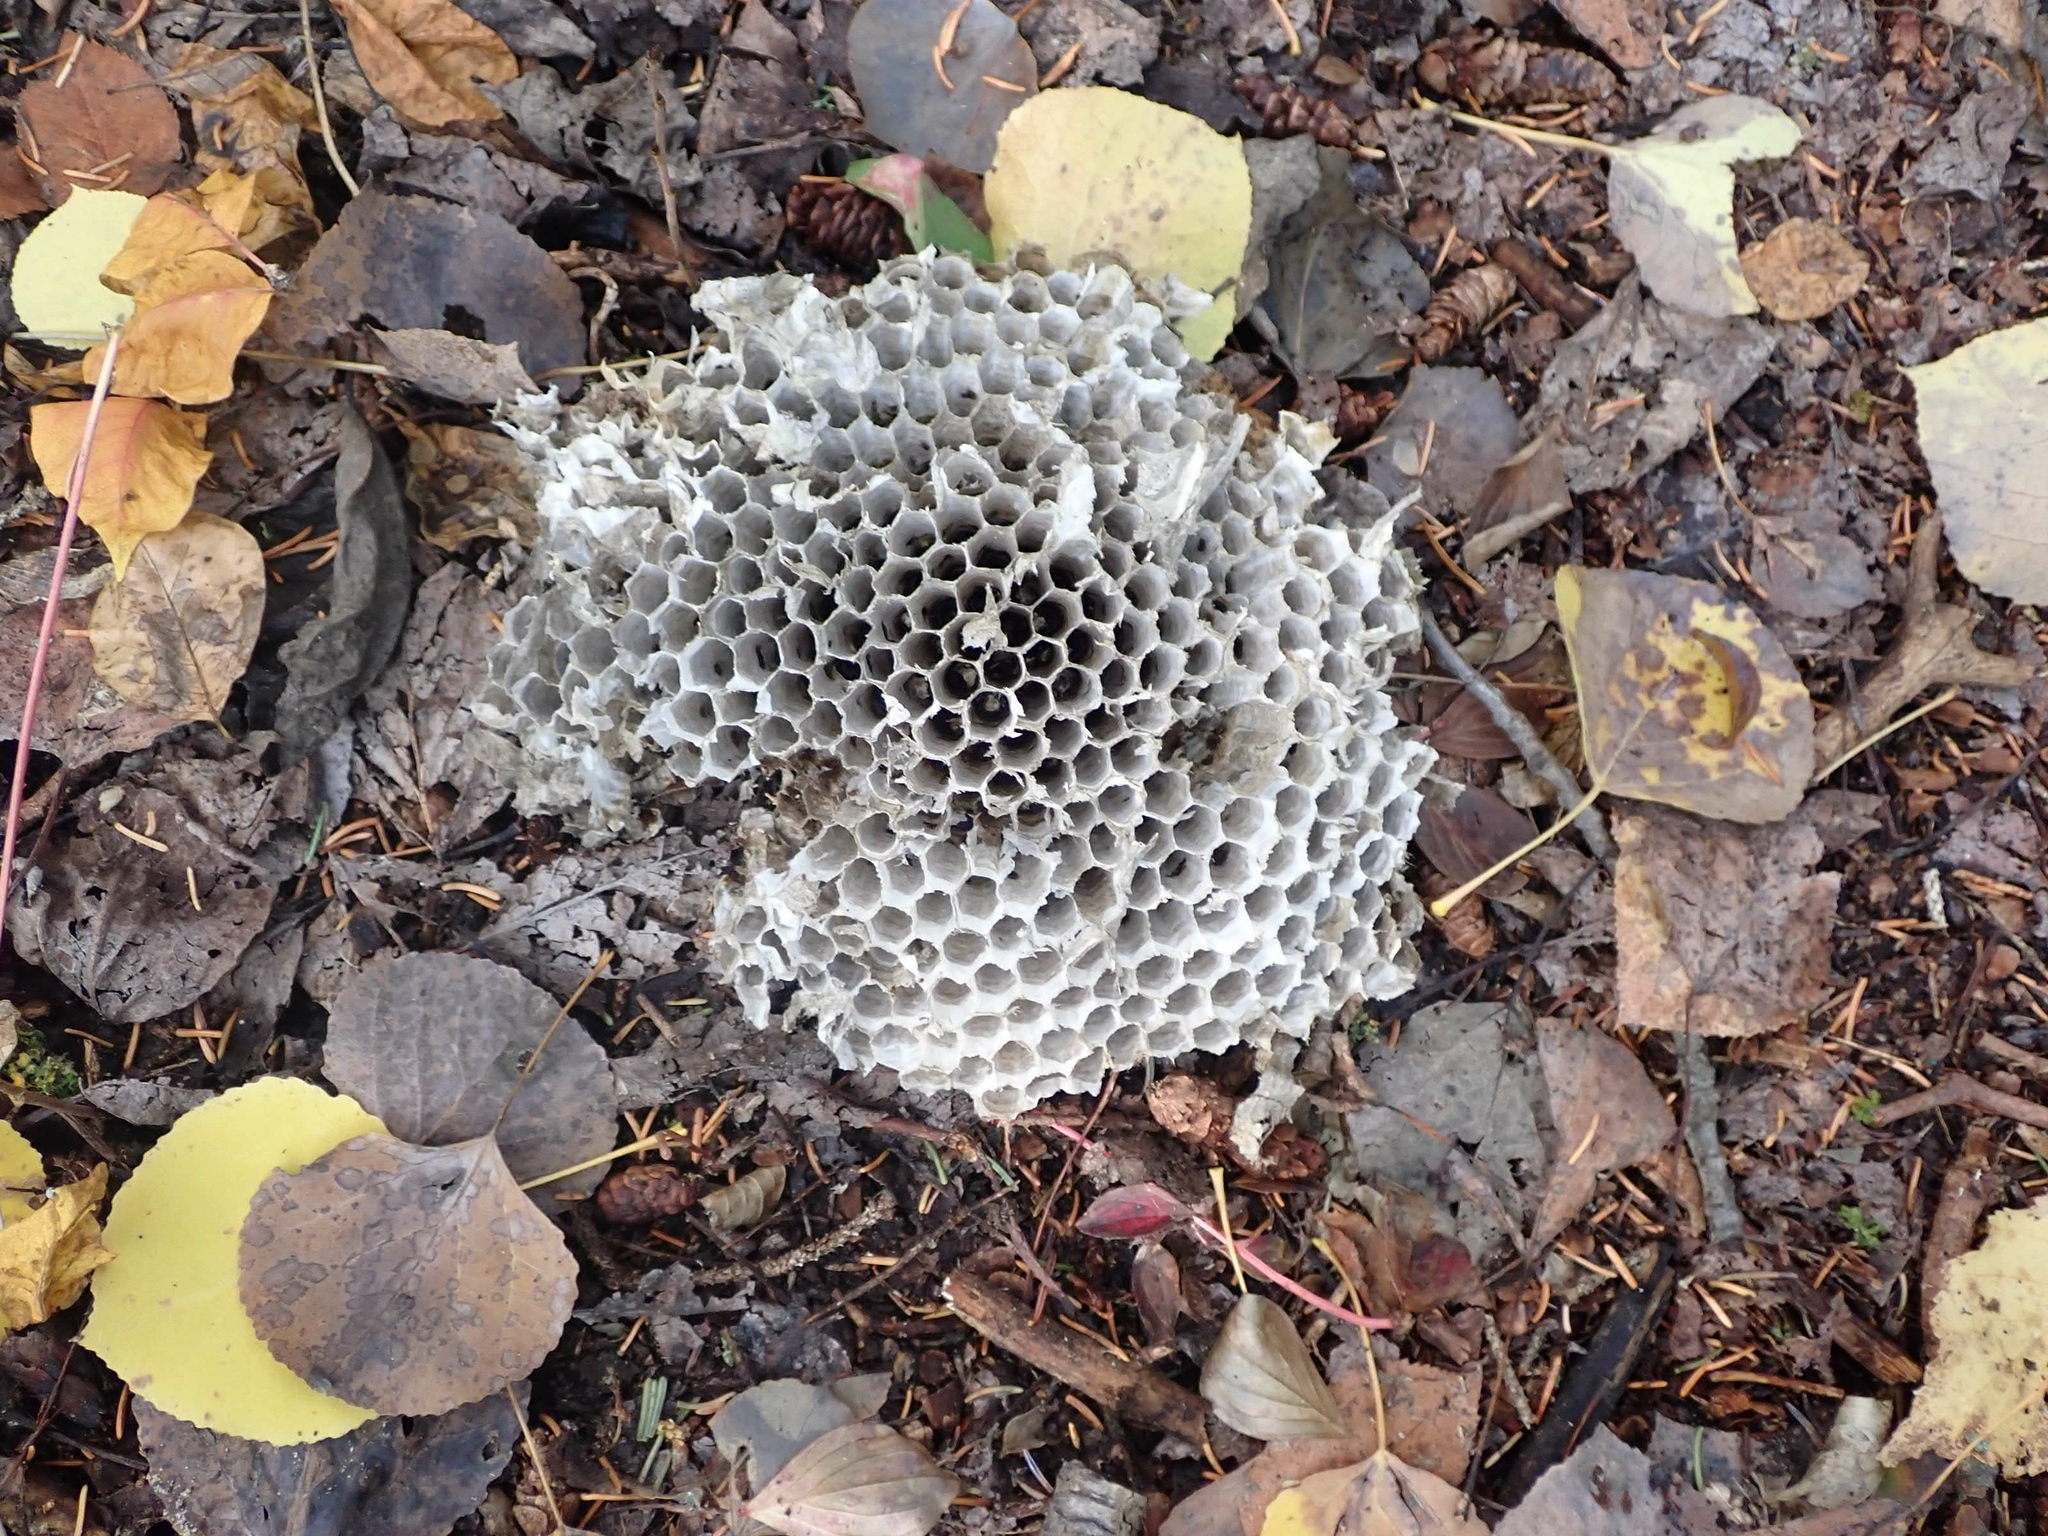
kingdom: Animalia
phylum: Arthropoda
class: Insecta
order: Hymenoptera
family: Vespidae
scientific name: Vespidae
